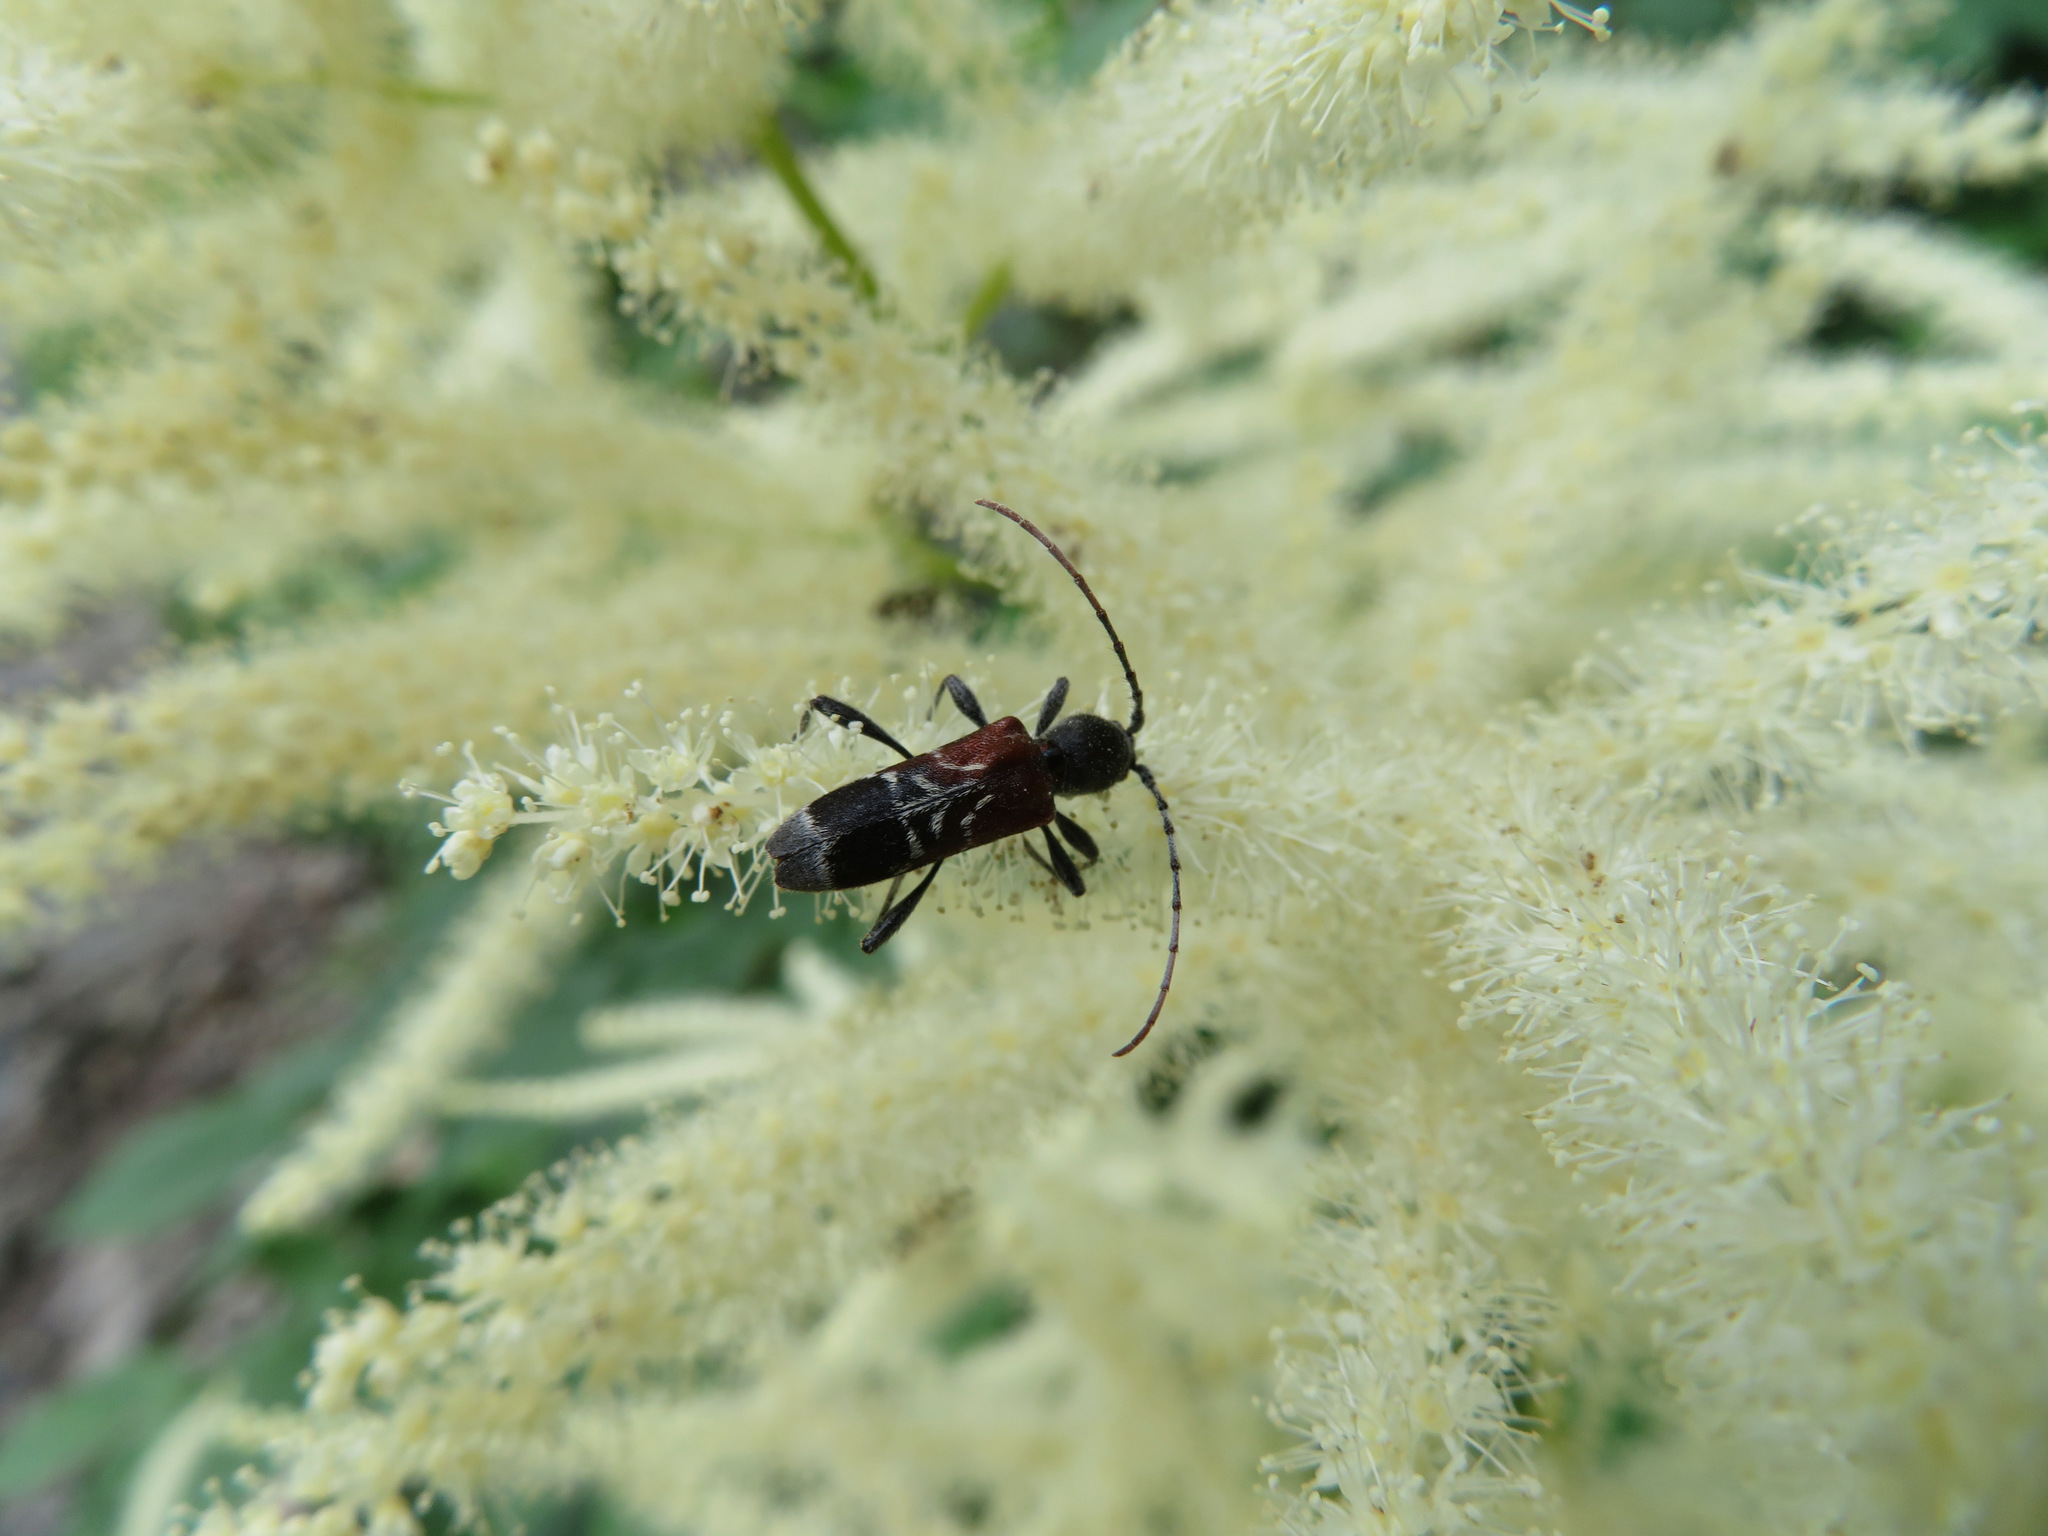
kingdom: Animalia
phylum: Arthropoda
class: Insecta
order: Coleoptera
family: Cerambycidae
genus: Anaglyptus
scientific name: Anaglyptus mysticus
